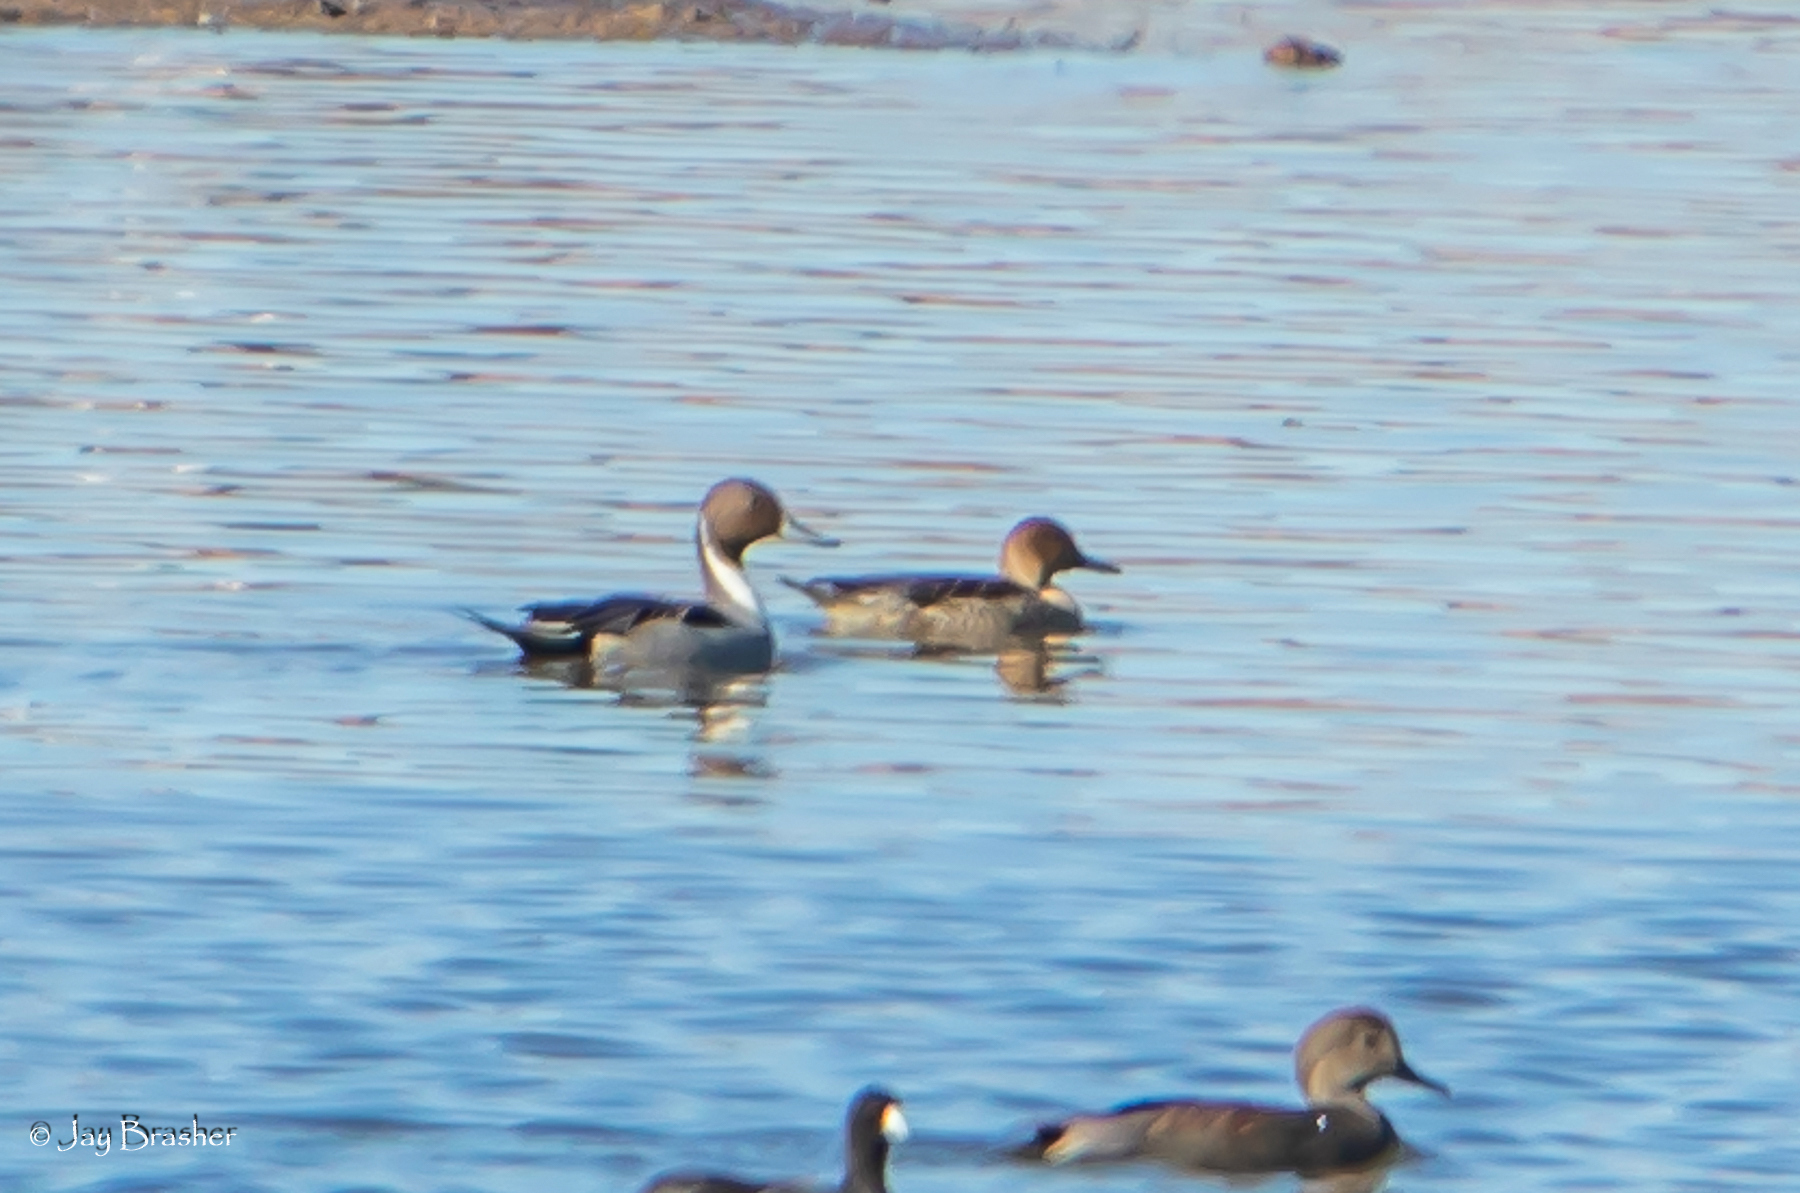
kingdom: Animalia
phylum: Chordata
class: Aves
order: Anseriformes
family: Anatidae
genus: Anas
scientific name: Anas acuta
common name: Northern pintail
